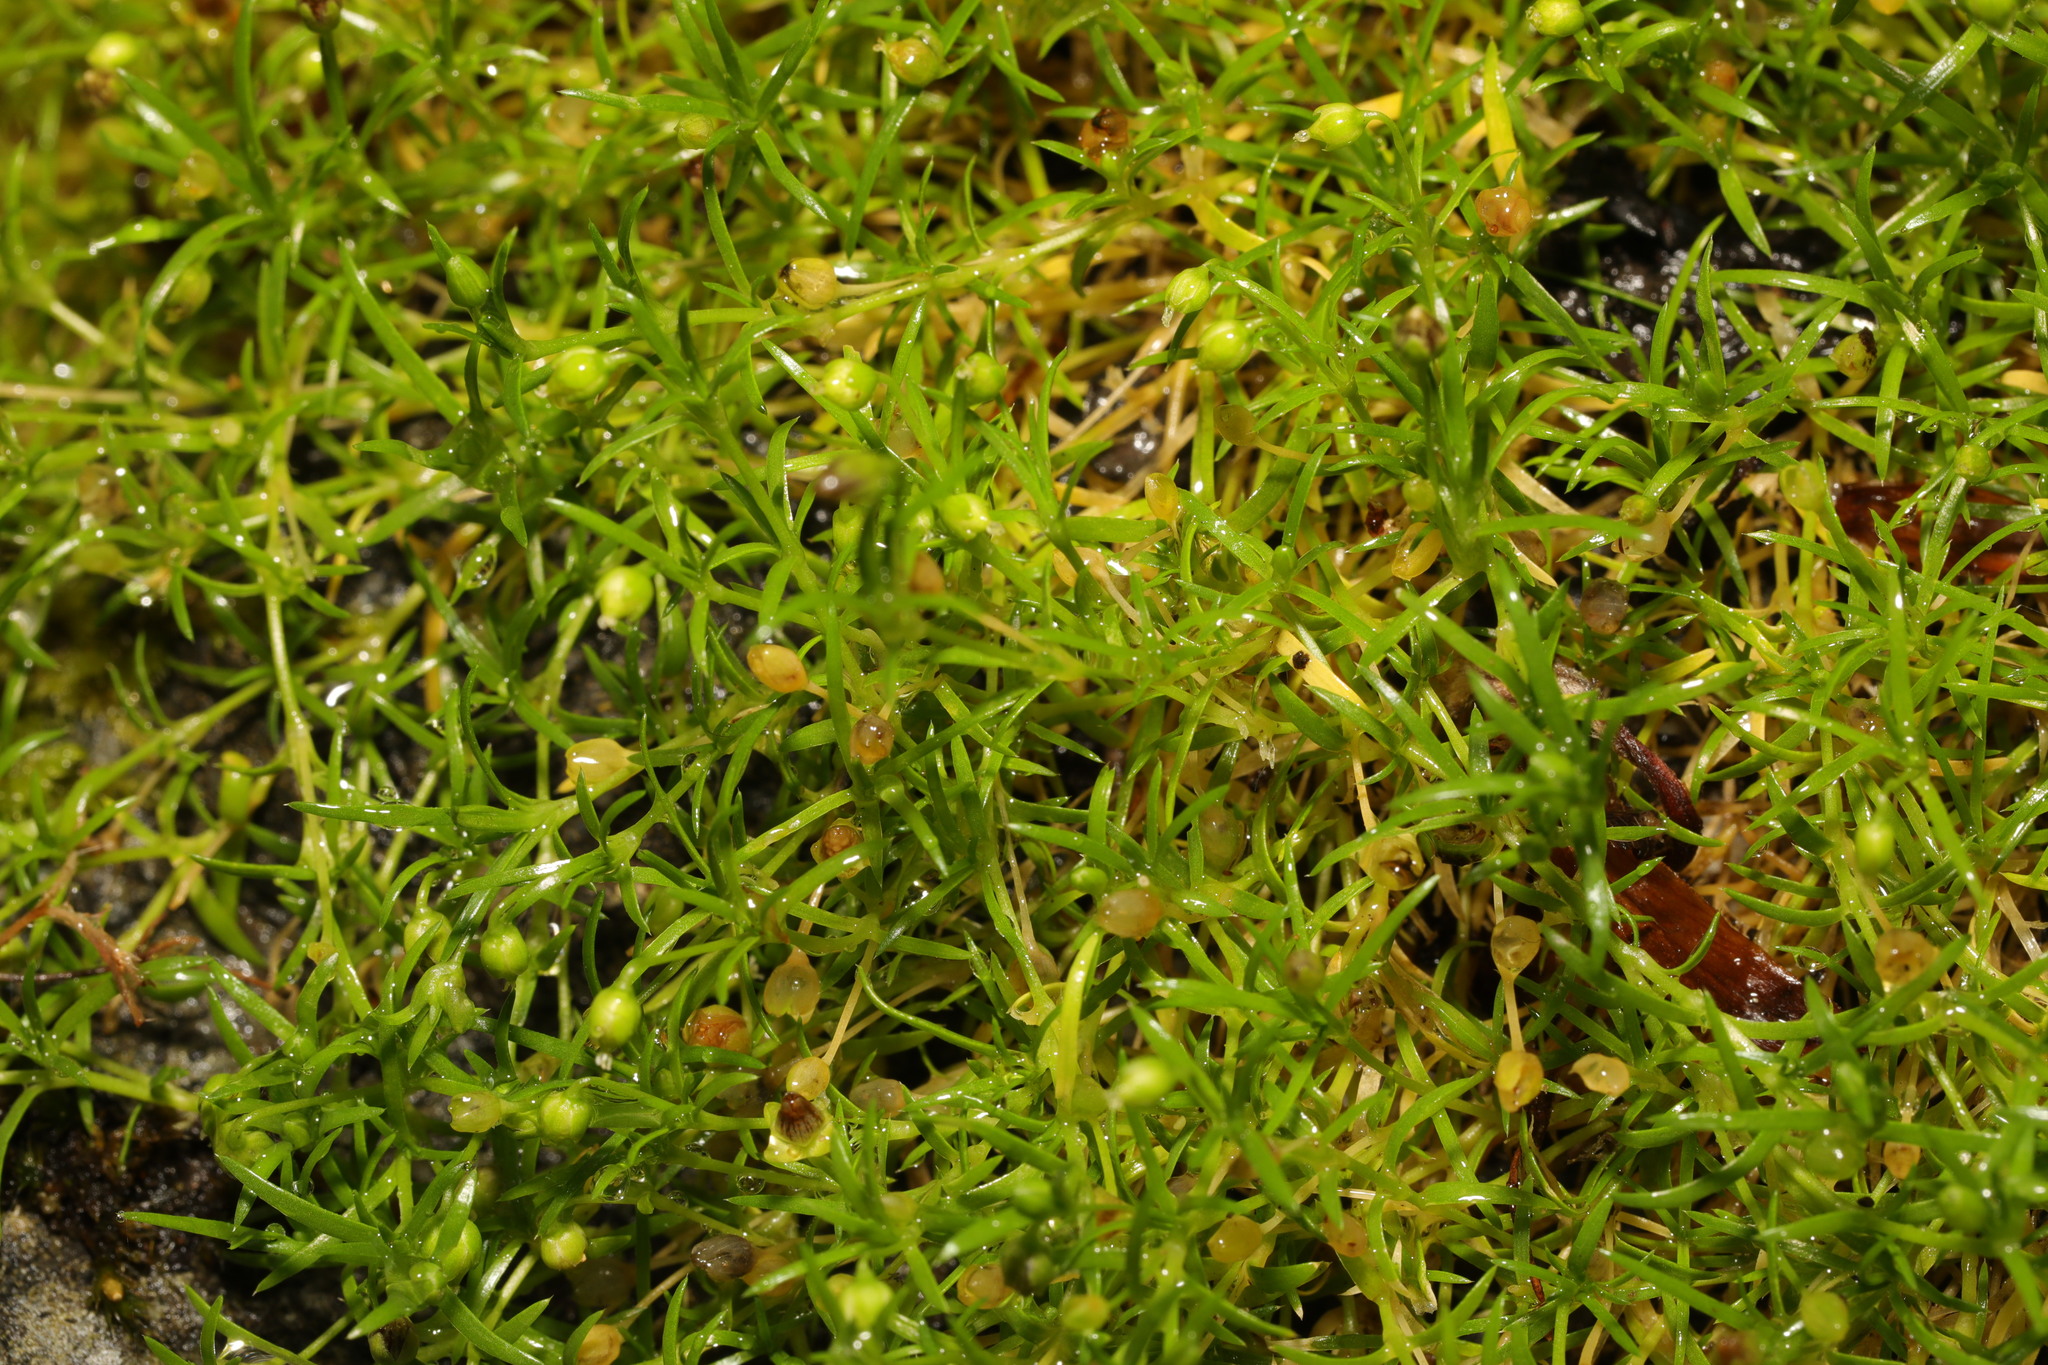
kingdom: Plantae
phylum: Tracheophyta
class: Magnoliopsida
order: Caryophyllales
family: Caryophyllaceae
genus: Sagina
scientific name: Sagina procumbens
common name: Procumbent pearlwort
